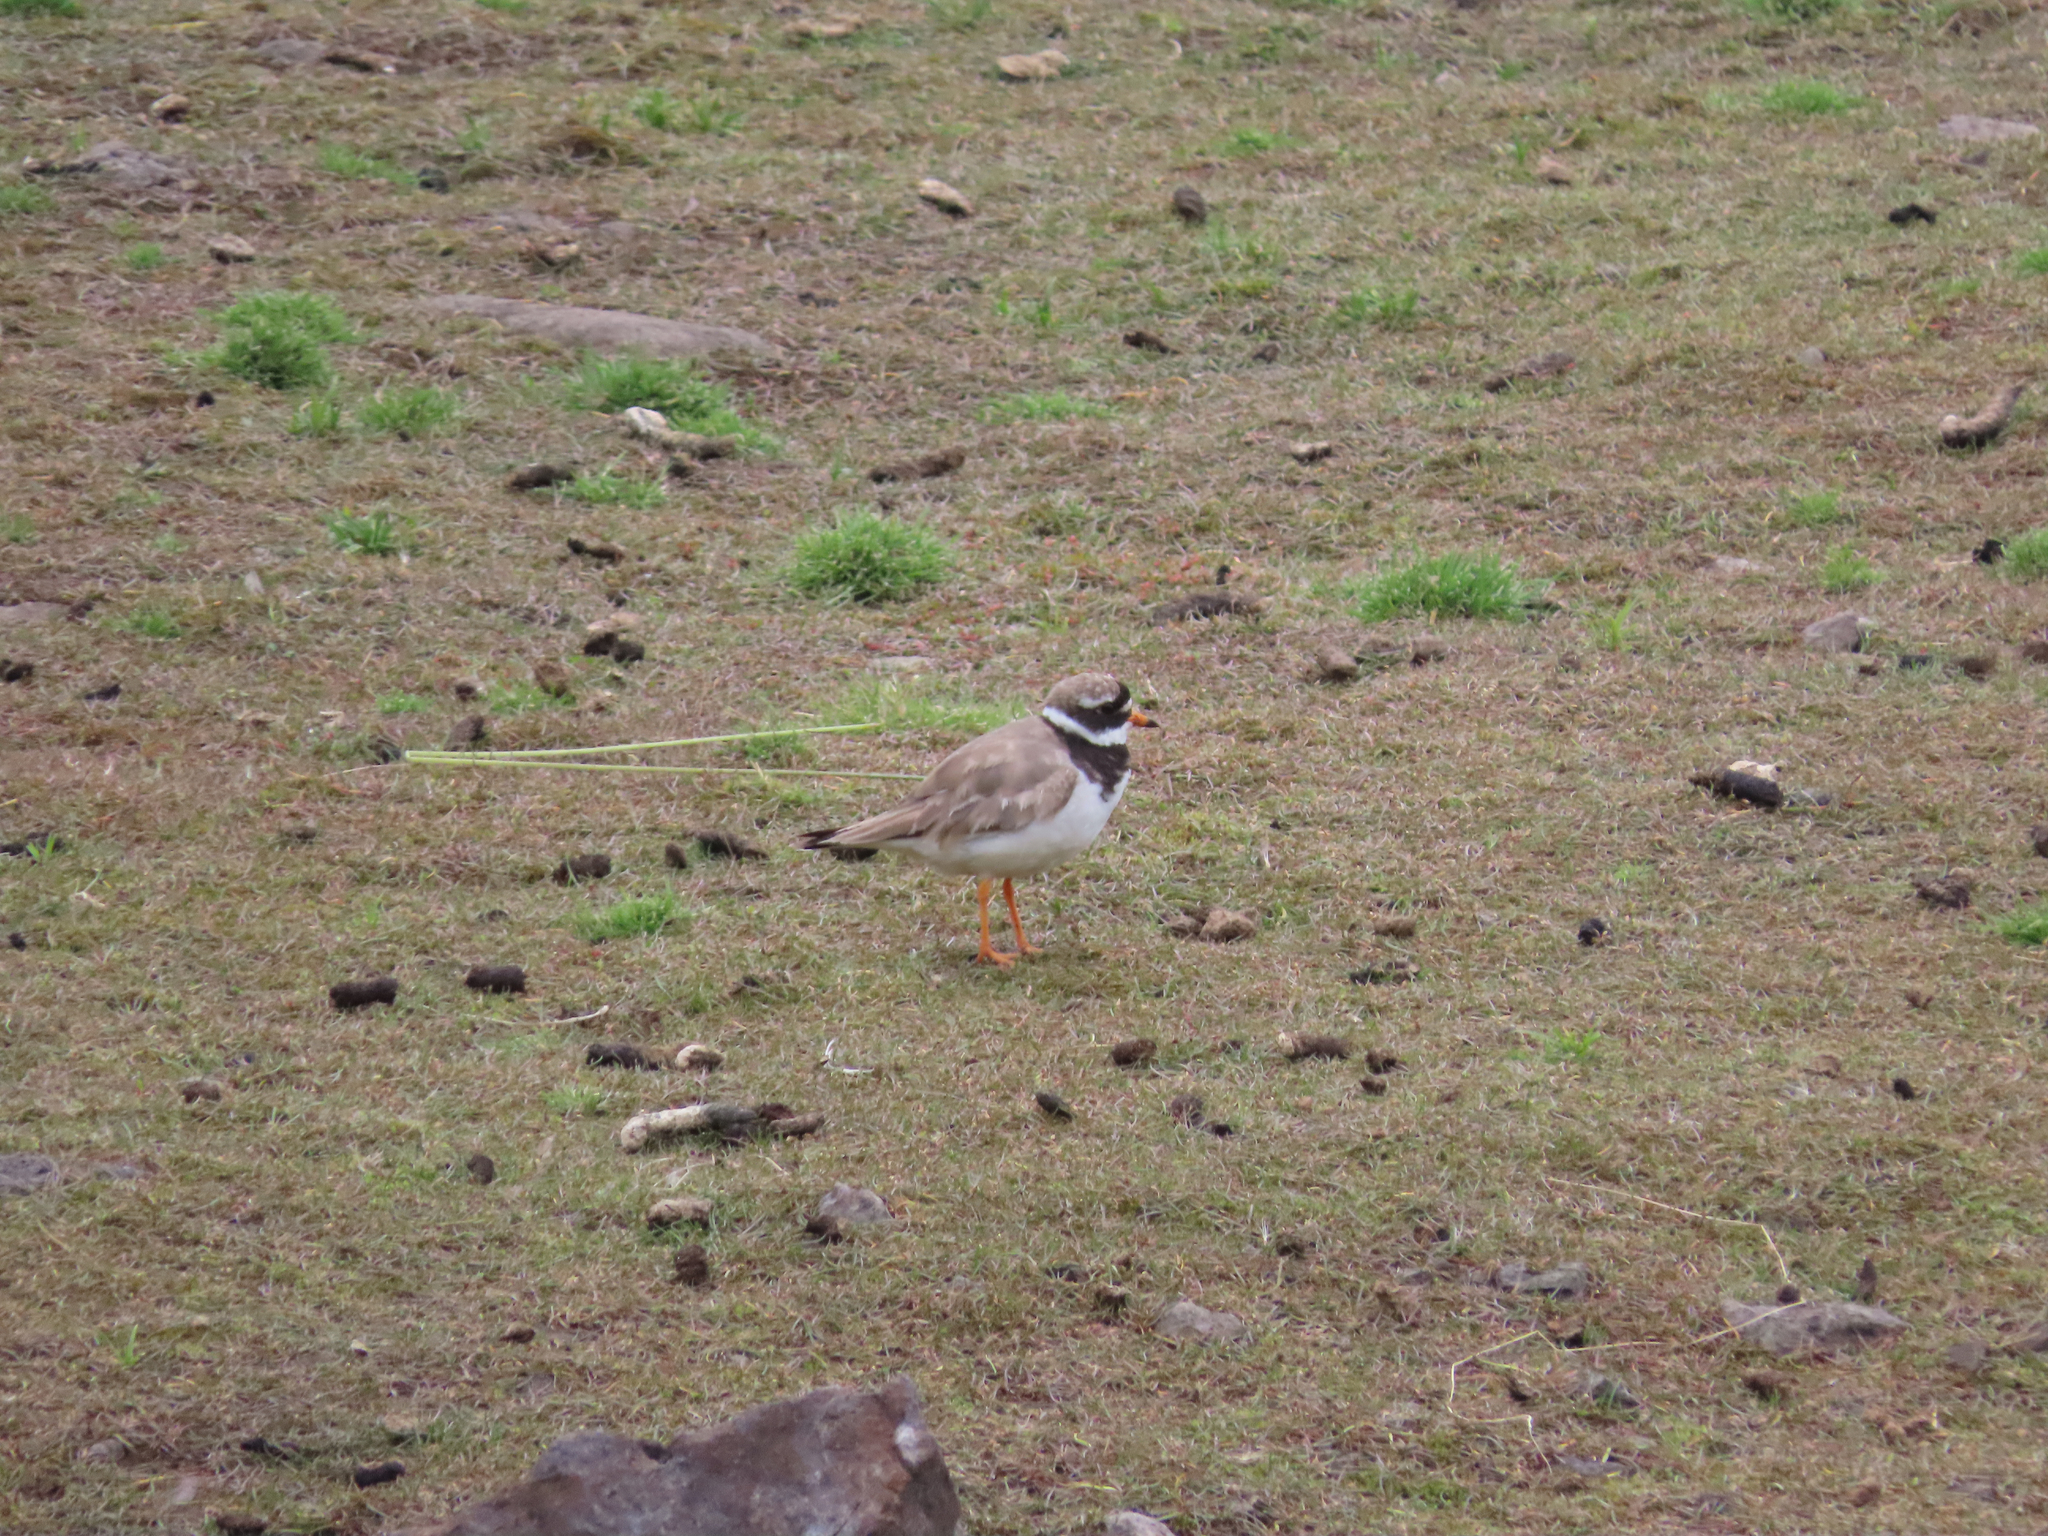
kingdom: Animalia
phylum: Chordata
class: Aves
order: Charadriiformes
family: Charadriidae
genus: Charadrius
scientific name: Charadrius hiaticula
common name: Common ringed plover
